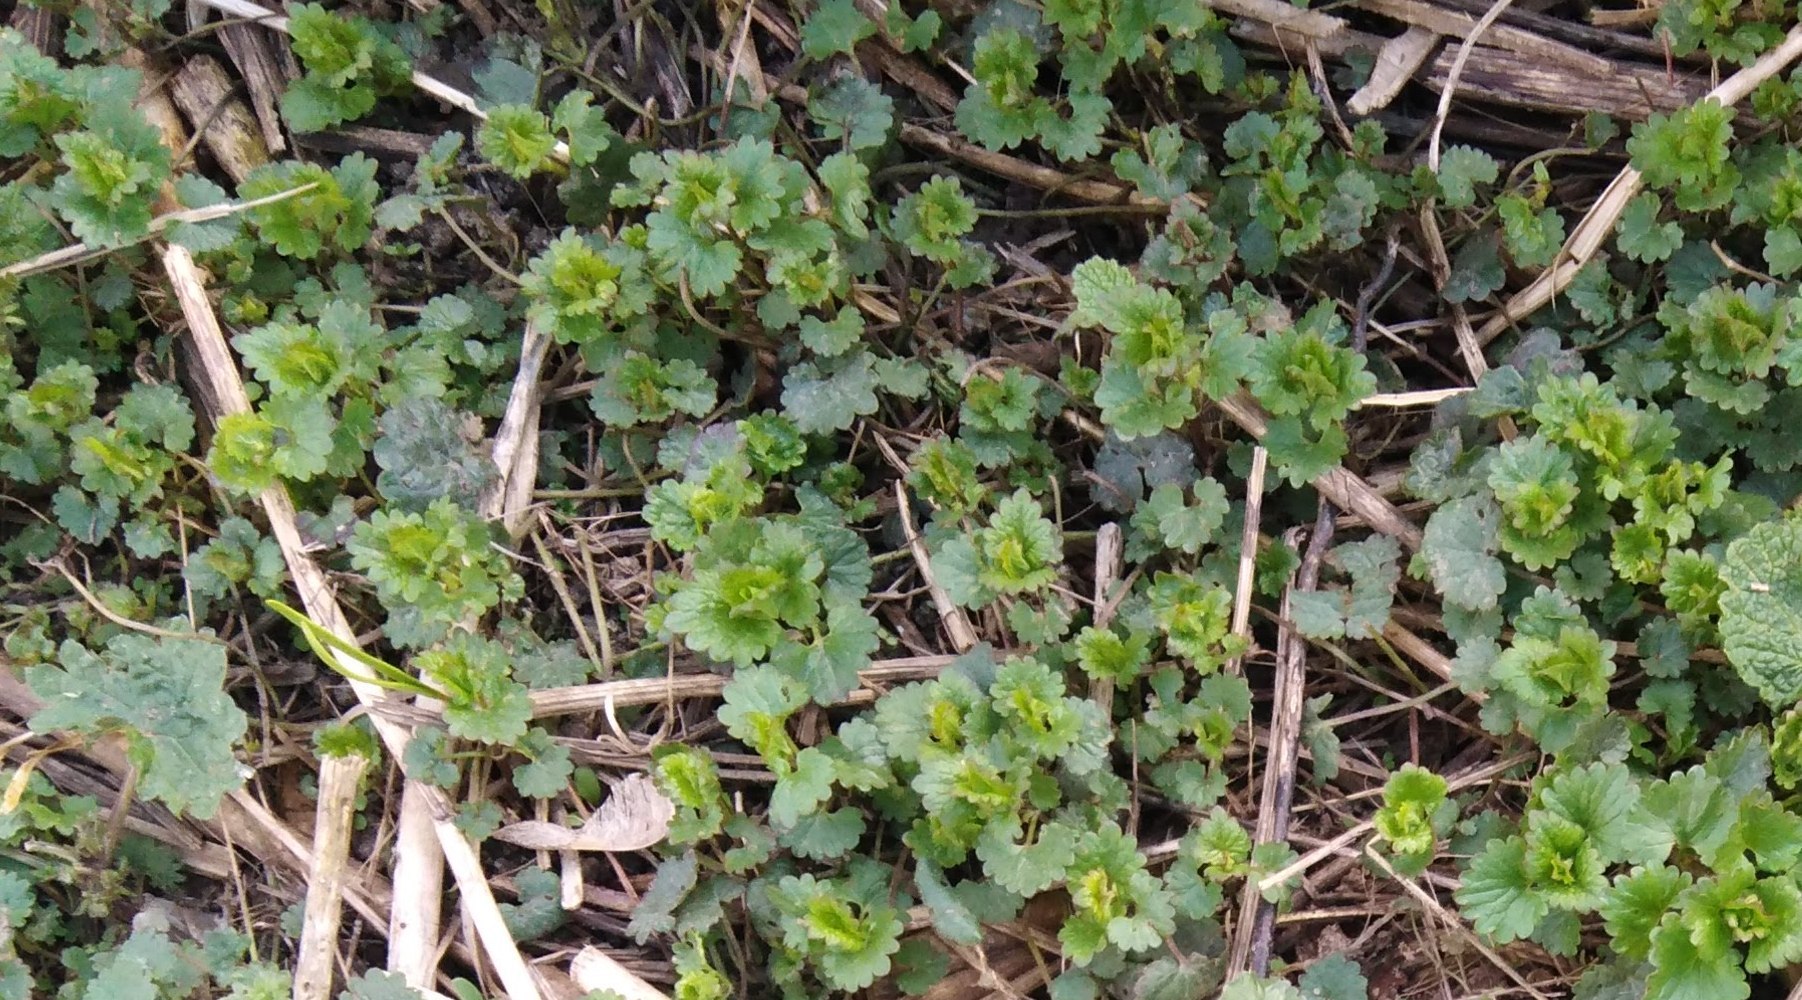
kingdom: Plantae
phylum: Tracheophyta
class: Magnoliopsida
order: Lamiales
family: Lamiaceae
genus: Glechoma
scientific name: Glechoma hederacea
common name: Ground ivy
